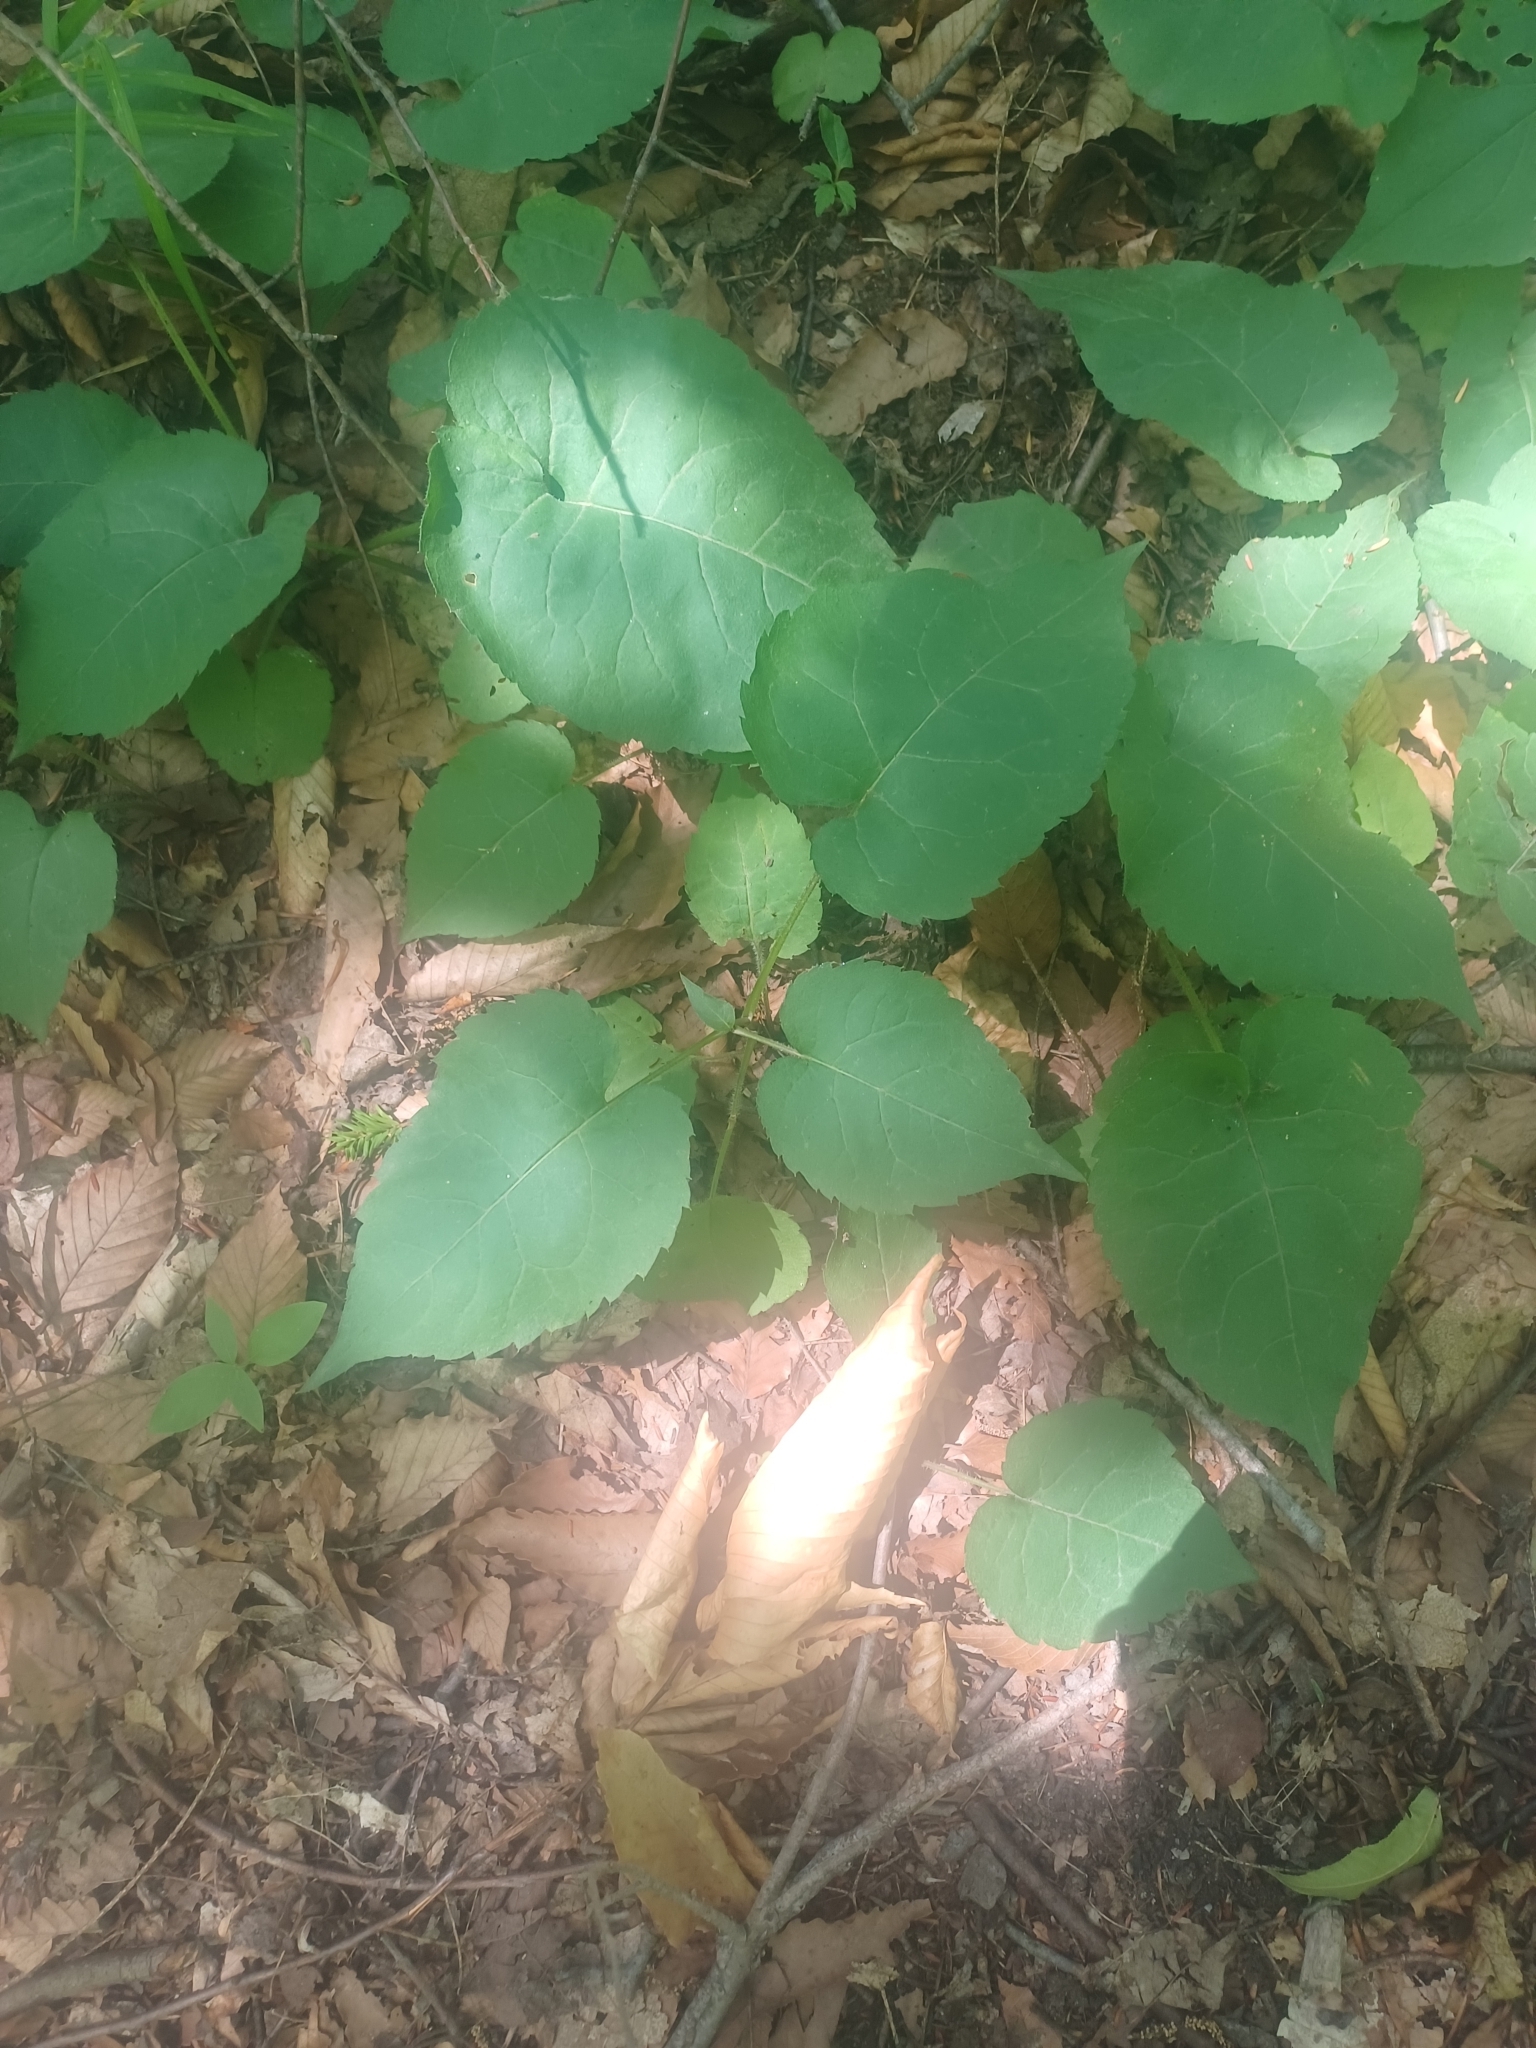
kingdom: Plantae
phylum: Tracheophyta
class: Magnoliopsida
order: Asterales
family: Asteraceae
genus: Eurybia
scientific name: Eurybia macrophylla
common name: Big-leaved aster
